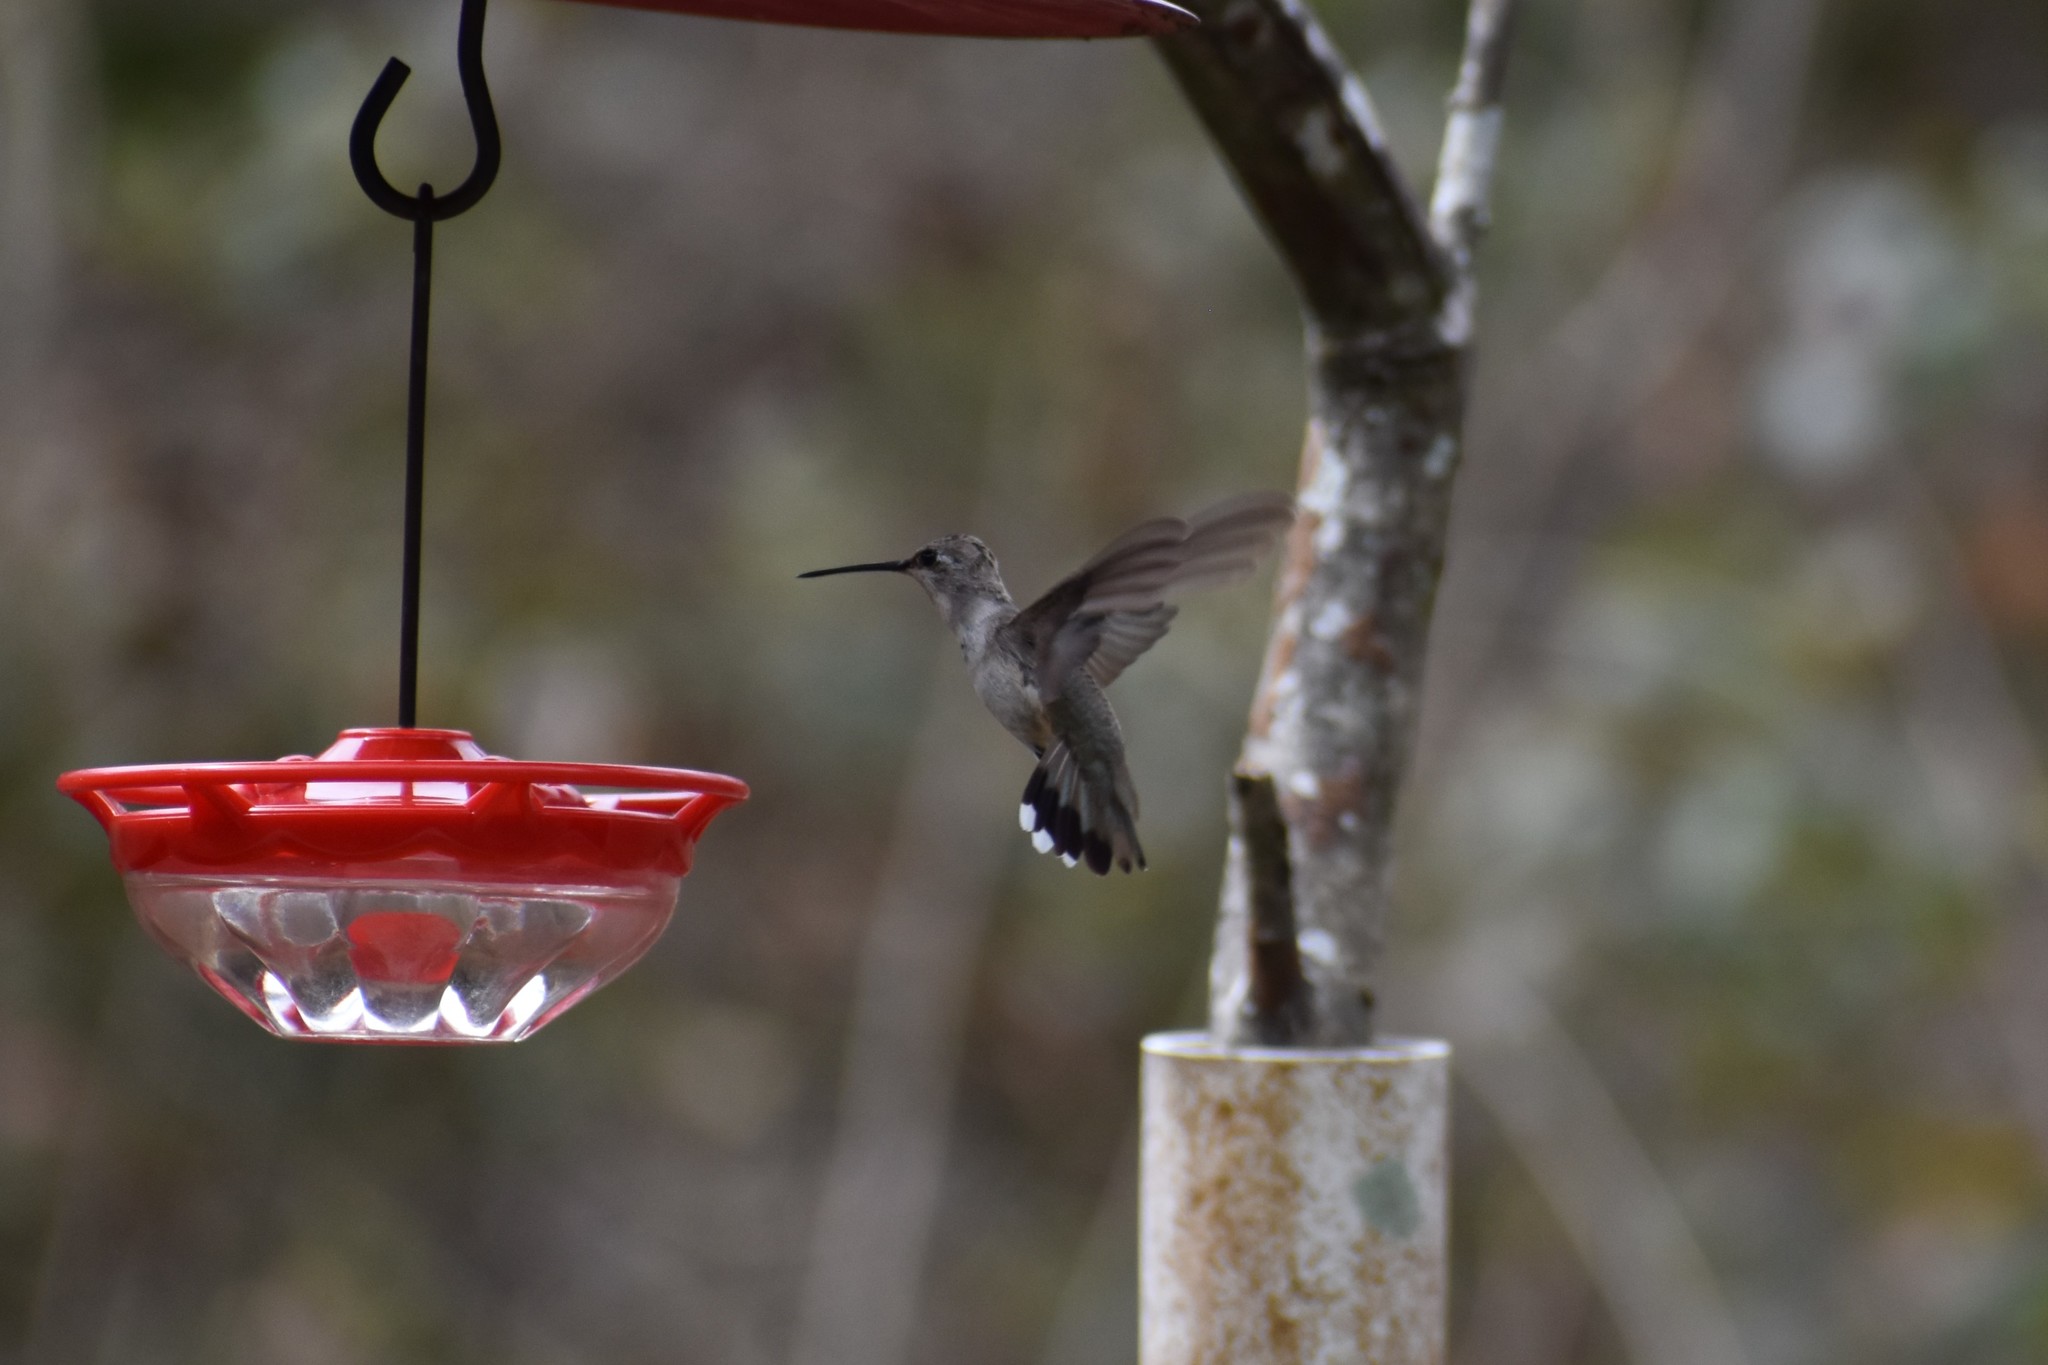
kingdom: Animalia
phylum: Chordata
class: Aves
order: Apodiformes
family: Trochilidae
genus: Archilochus
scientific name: Archilochus alexandri
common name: Black-chinned hummingbird
